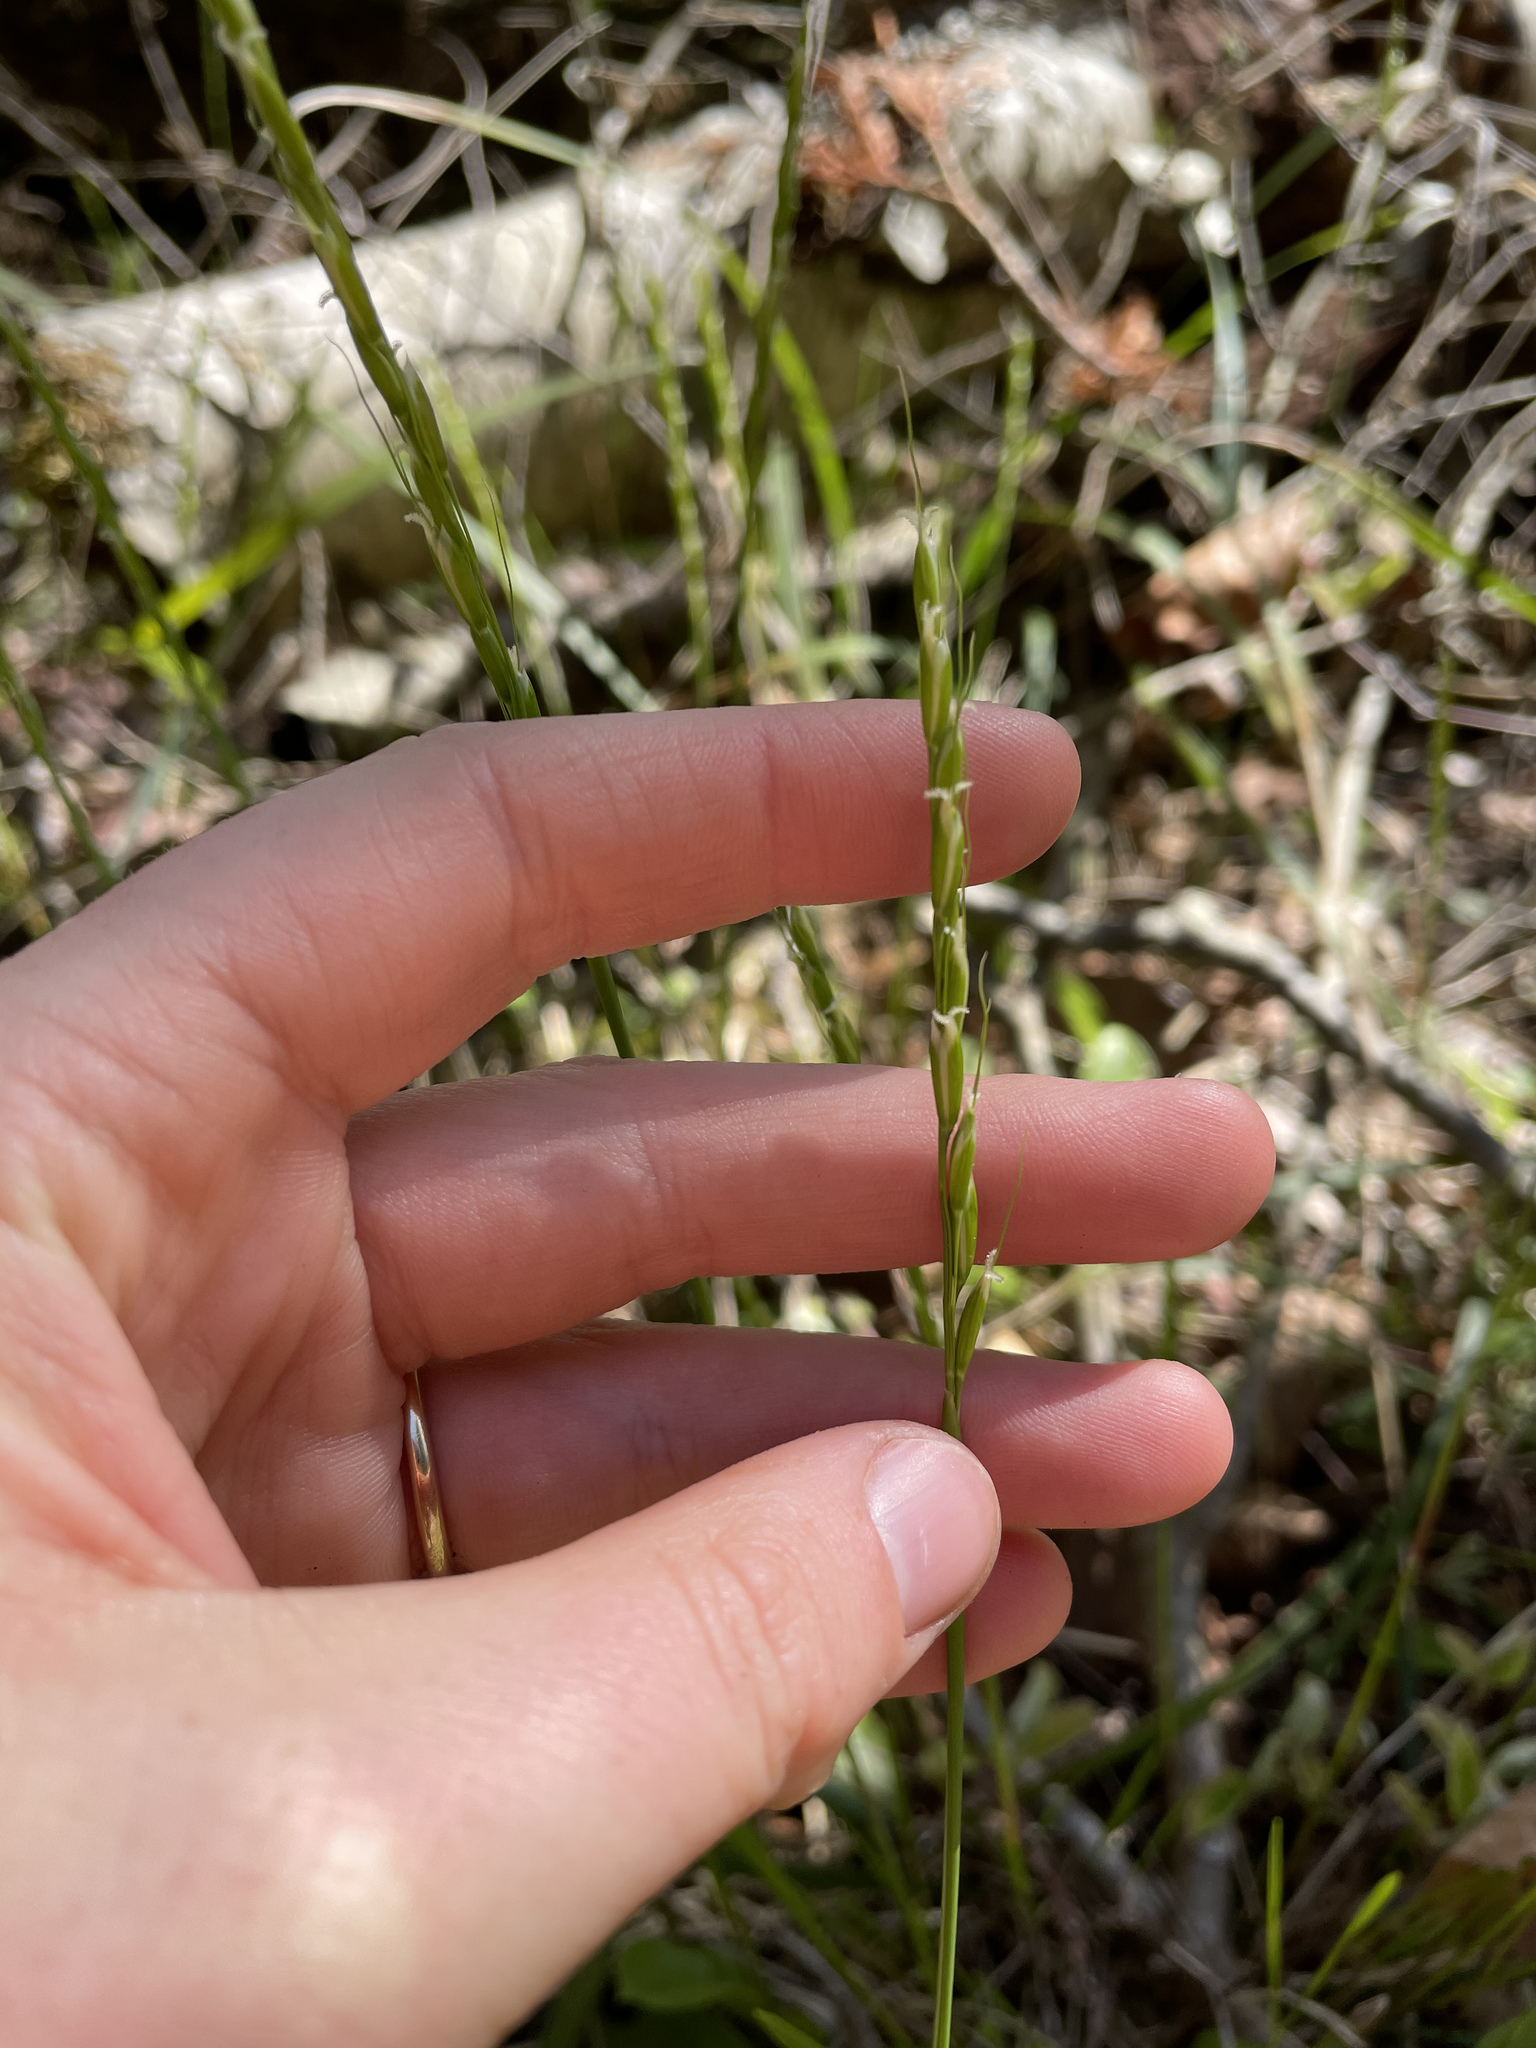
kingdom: Plantae
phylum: Tracheophyta
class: Liliopsida
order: Poales
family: Poaceae
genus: Oryzopsis
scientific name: Oryzopsis asperifolia
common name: Rough-leaved mountain rice
